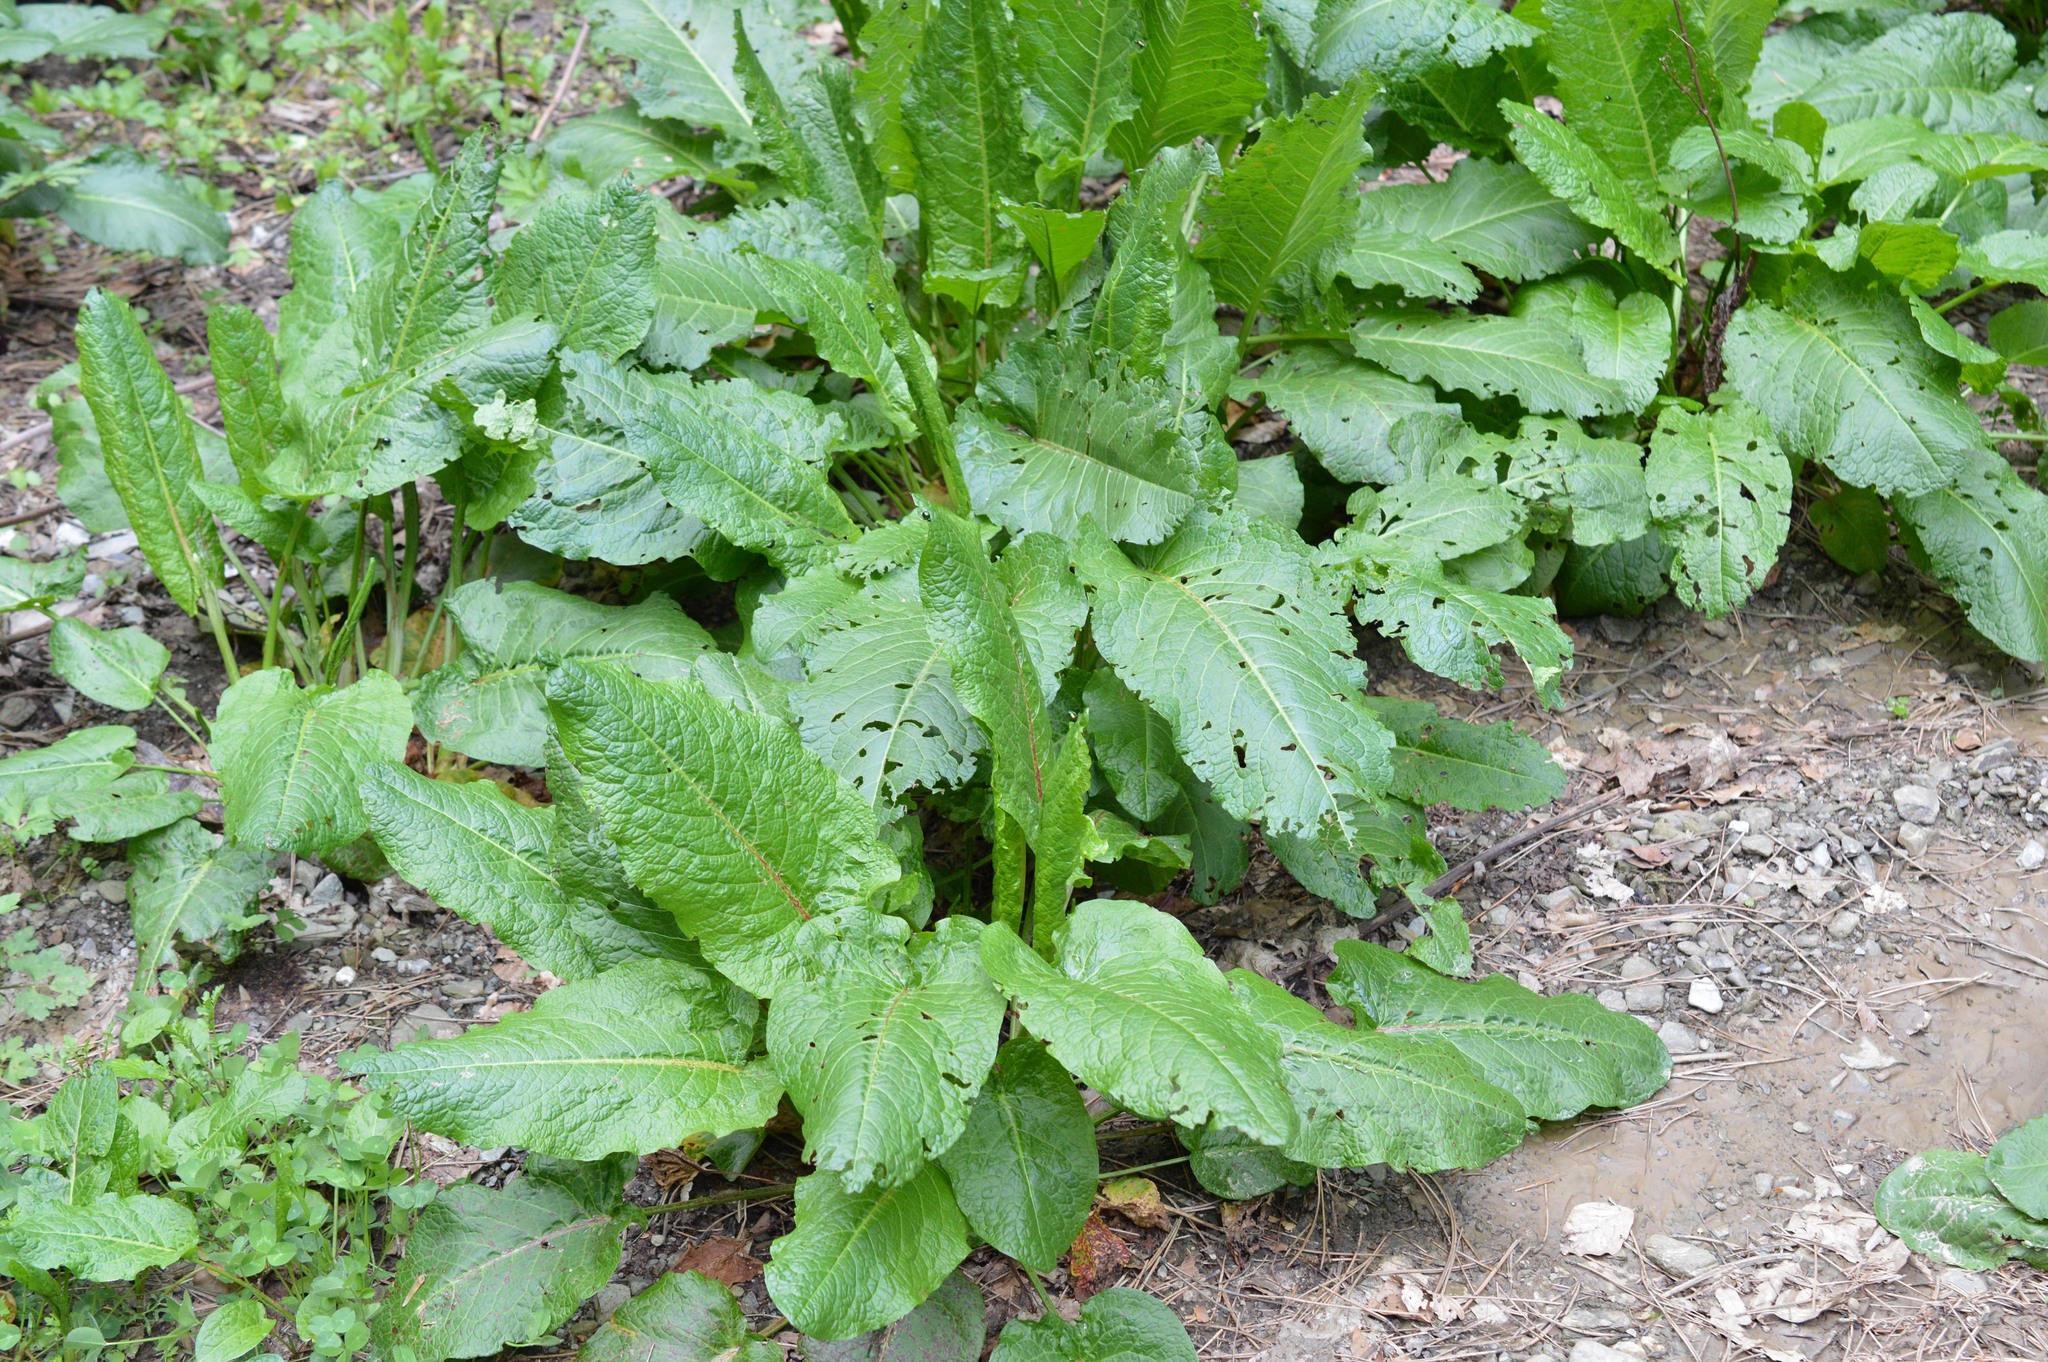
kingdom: Animalia
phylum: Arthropoda
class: Insecta
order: Coleoptera
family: Chrysomelidae
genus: Gastrophysa
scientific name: Gastrophysa viridula
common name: Green dock beetle
